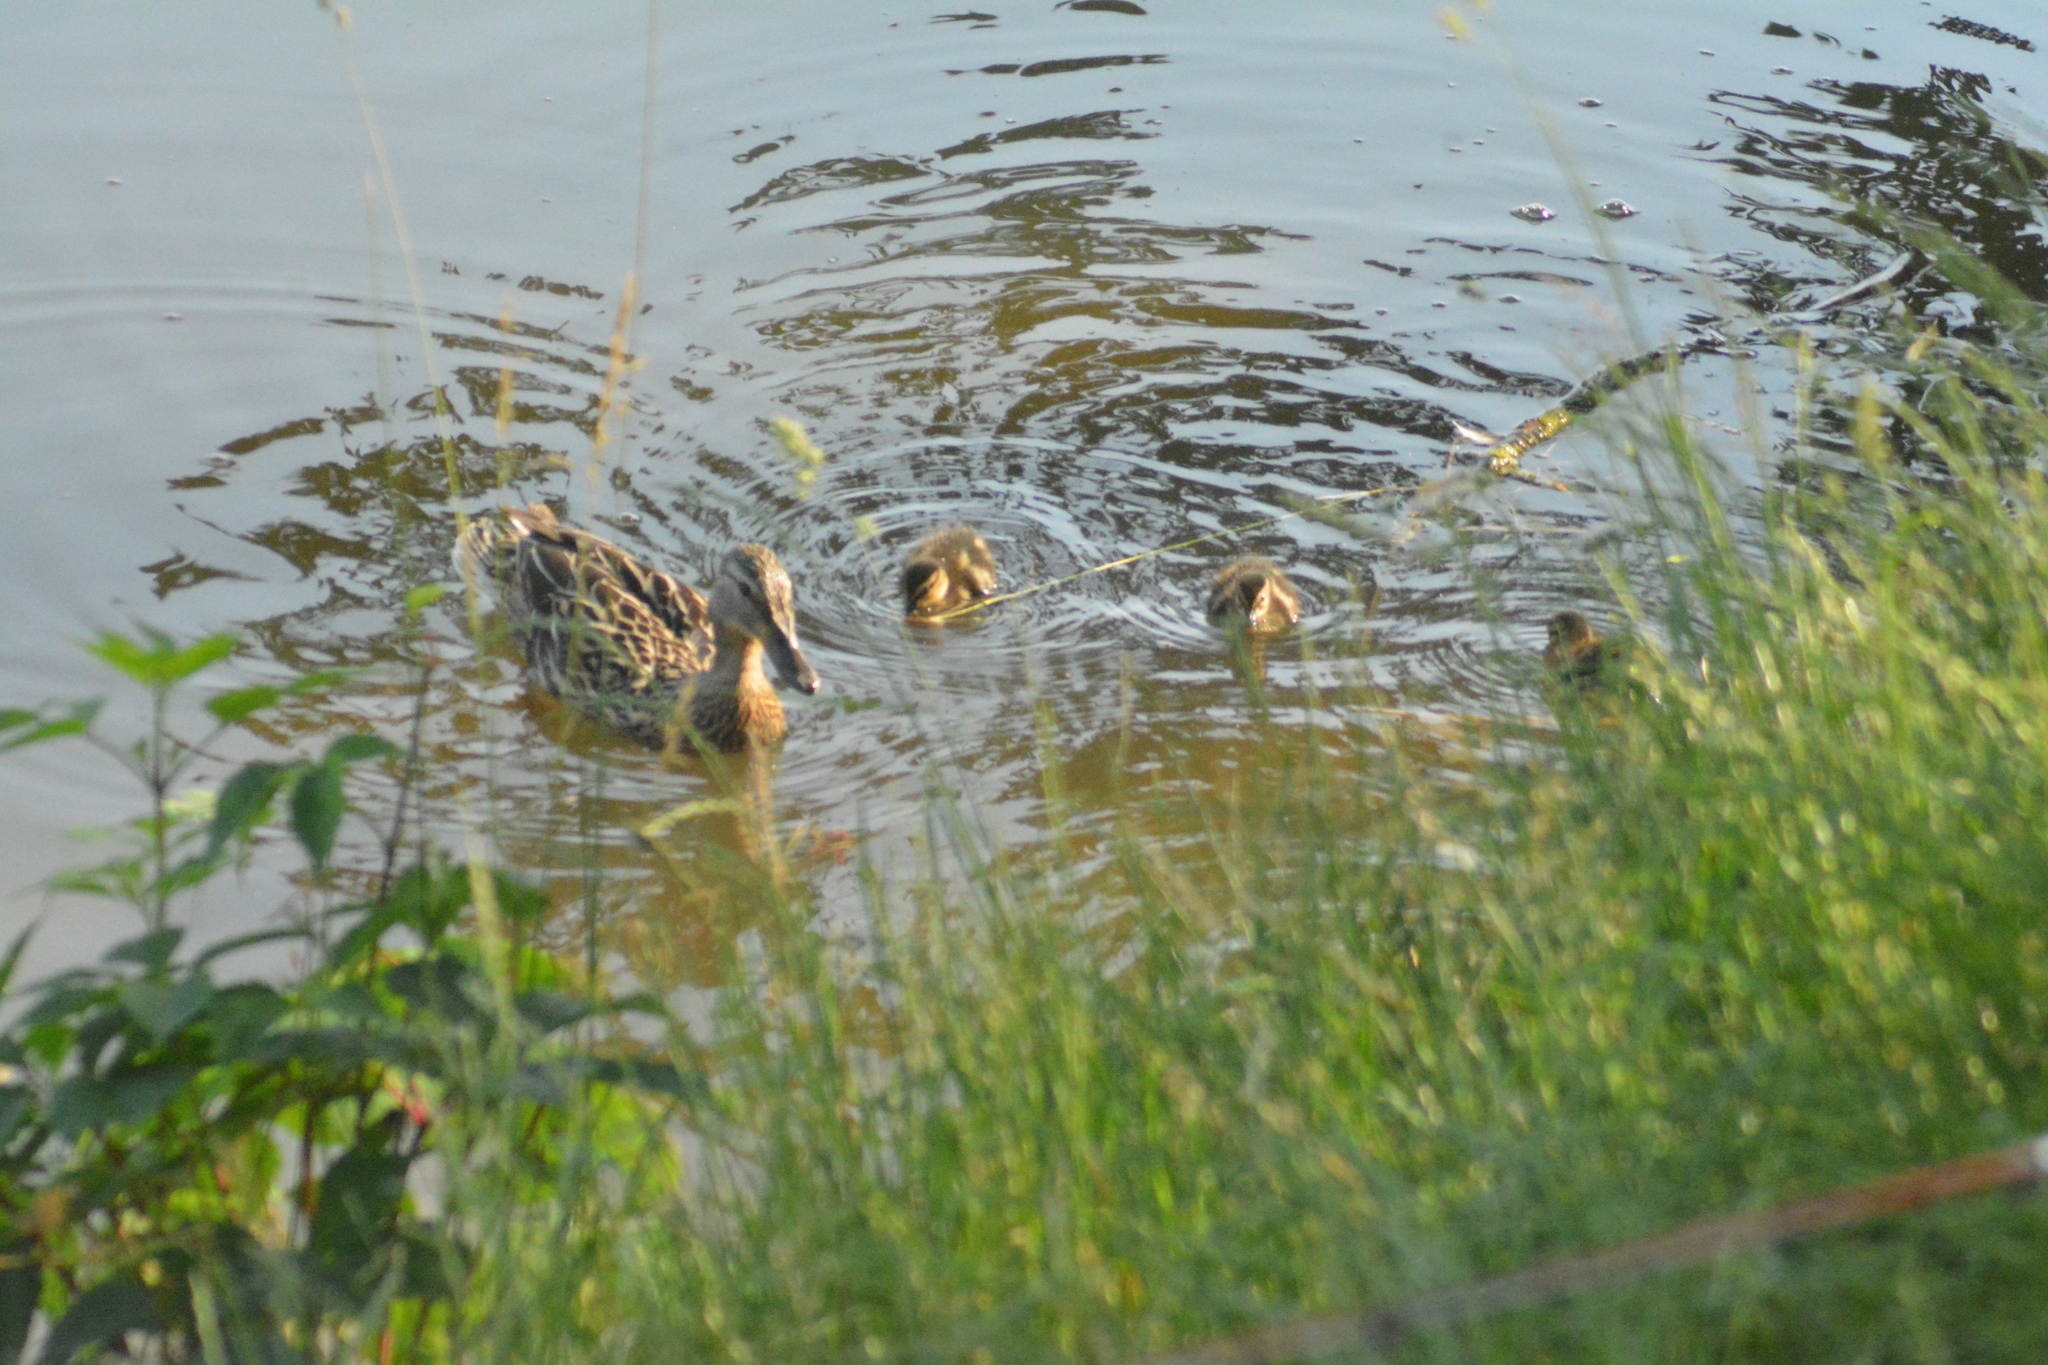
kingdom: Animalia
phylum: Chordata
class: Aves
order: Anseriformes
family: Anatidae
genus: Anas
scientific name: Anas platyrhynchos
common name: Mallard
